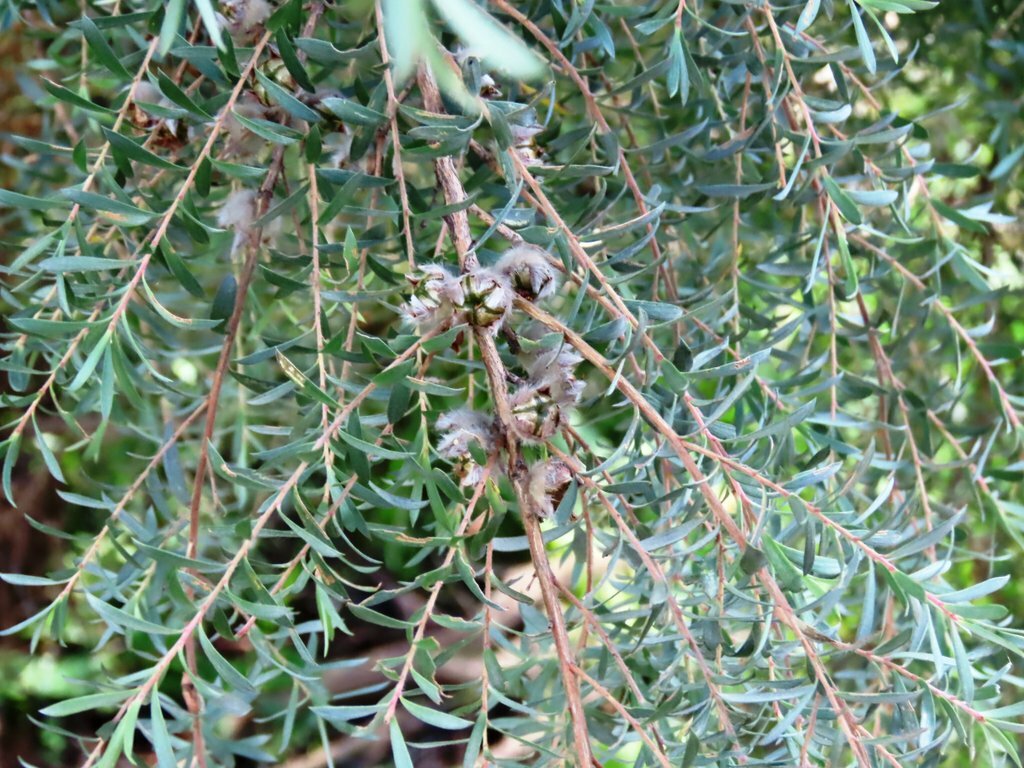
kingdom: Plantae
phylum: Tracheophyta
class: Magnoliopsida
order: Myrtales
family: Myrtaceae
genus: Leptospermum
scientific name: Leptospermum lanigerum
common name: Woolly tea-tree
